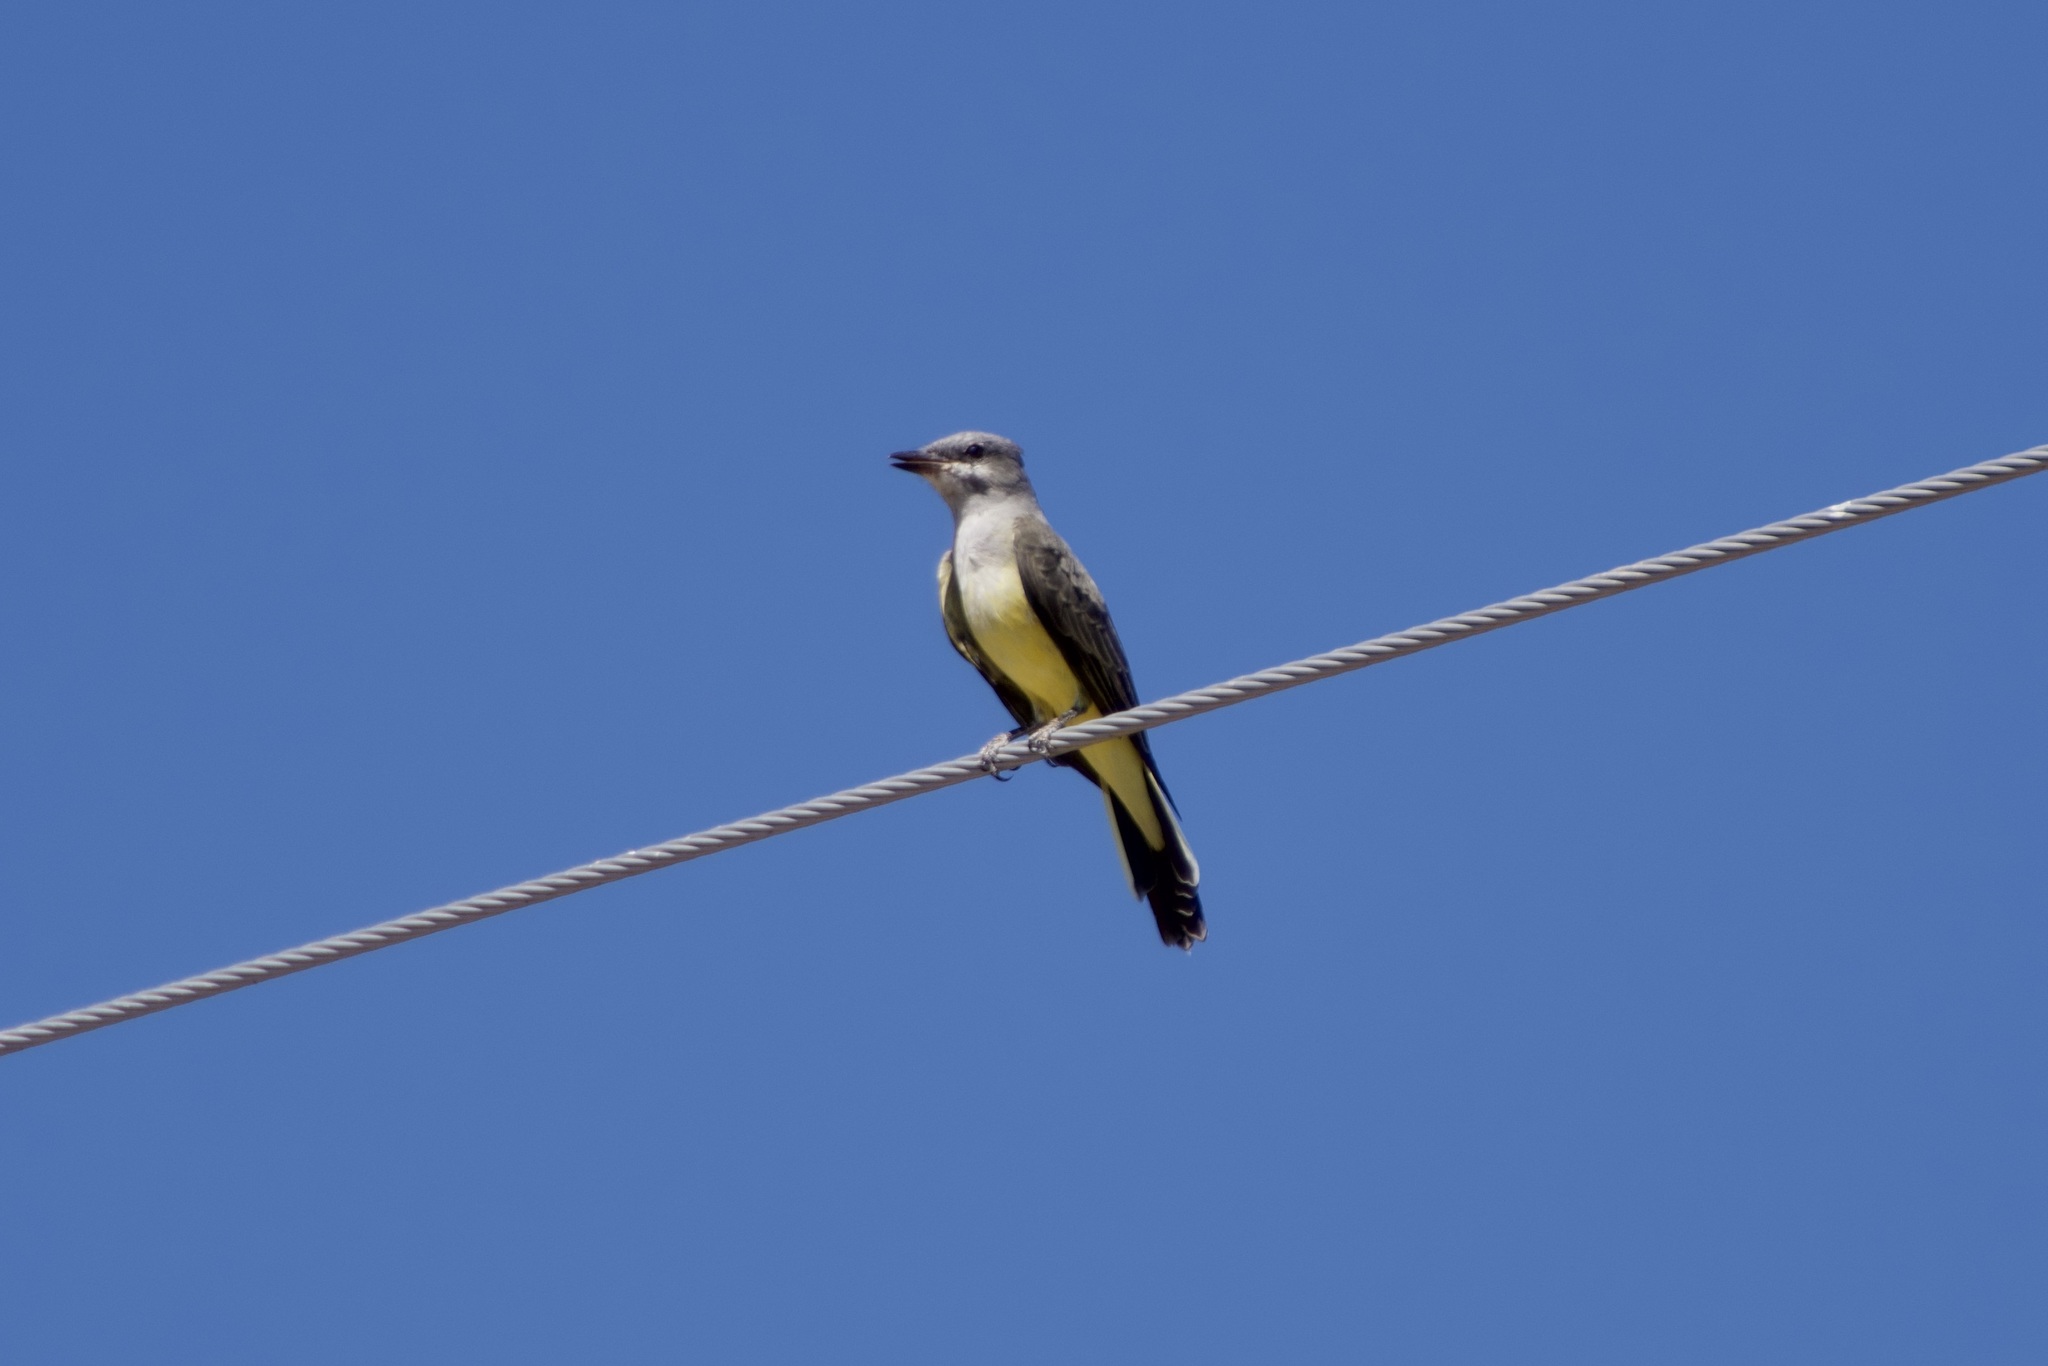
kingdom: Animalia
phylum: Chordata
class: Aves
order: Passeriformes
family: Tyrannidae
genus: Tyrannus
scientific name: Tyrannus verticalis
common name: Western kingbird
